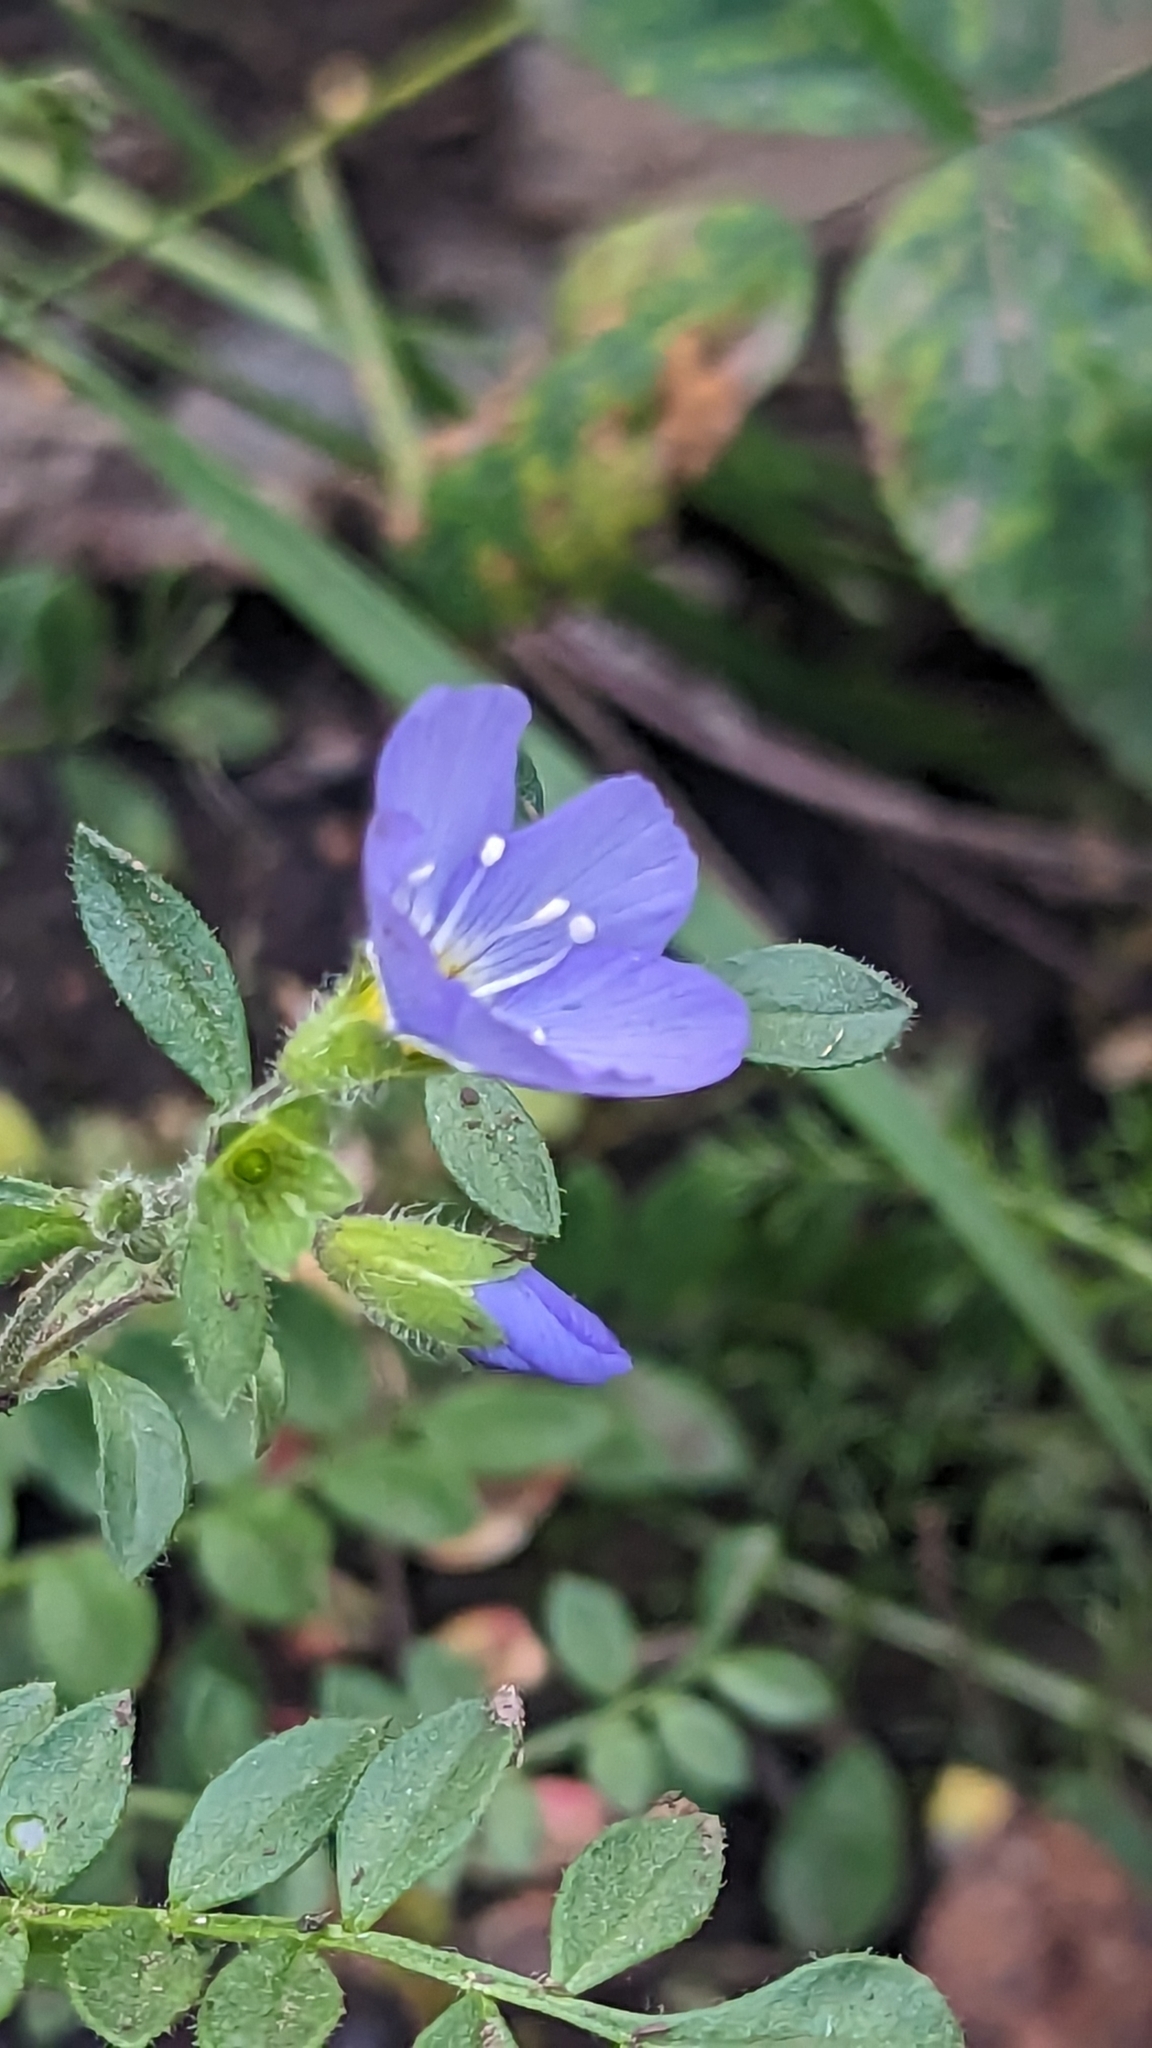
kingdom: Plantae
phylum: Tracheophyta
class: Magnoliopsida
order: Ericales
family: Polemoniaceae
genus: Polemonium
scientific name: Polemonium pulcherrimum
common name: Short jacob's-ladder
